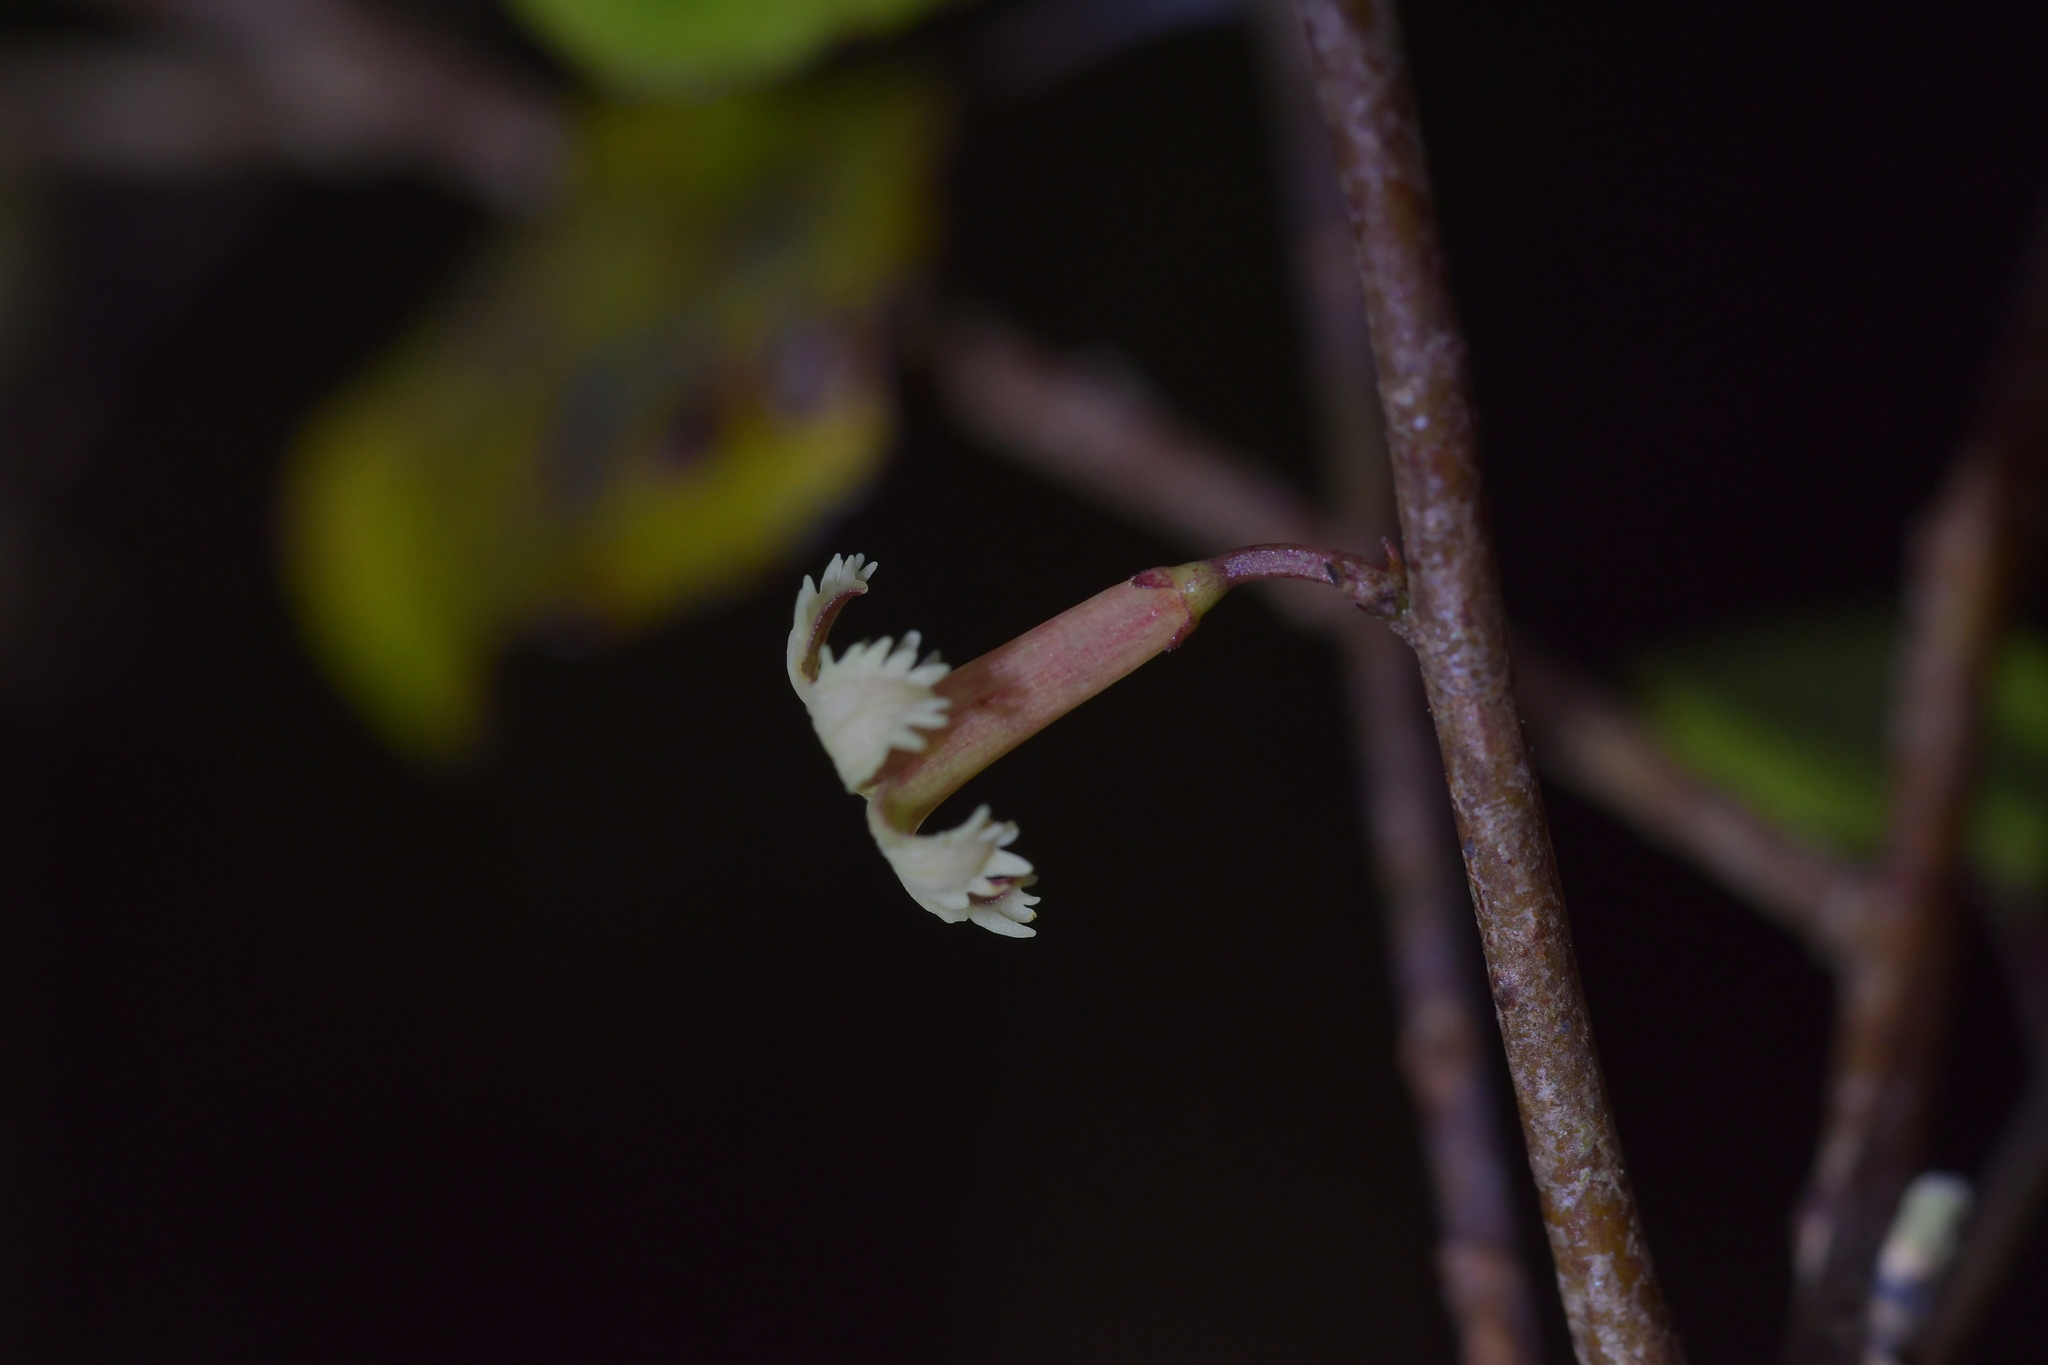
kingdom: Plantae
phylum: Tracheophyta
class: Magnoliopsida
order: Asterales
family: Alseuosmiaceae
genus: Alseuosmia
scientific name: Alseuosmia banksii
